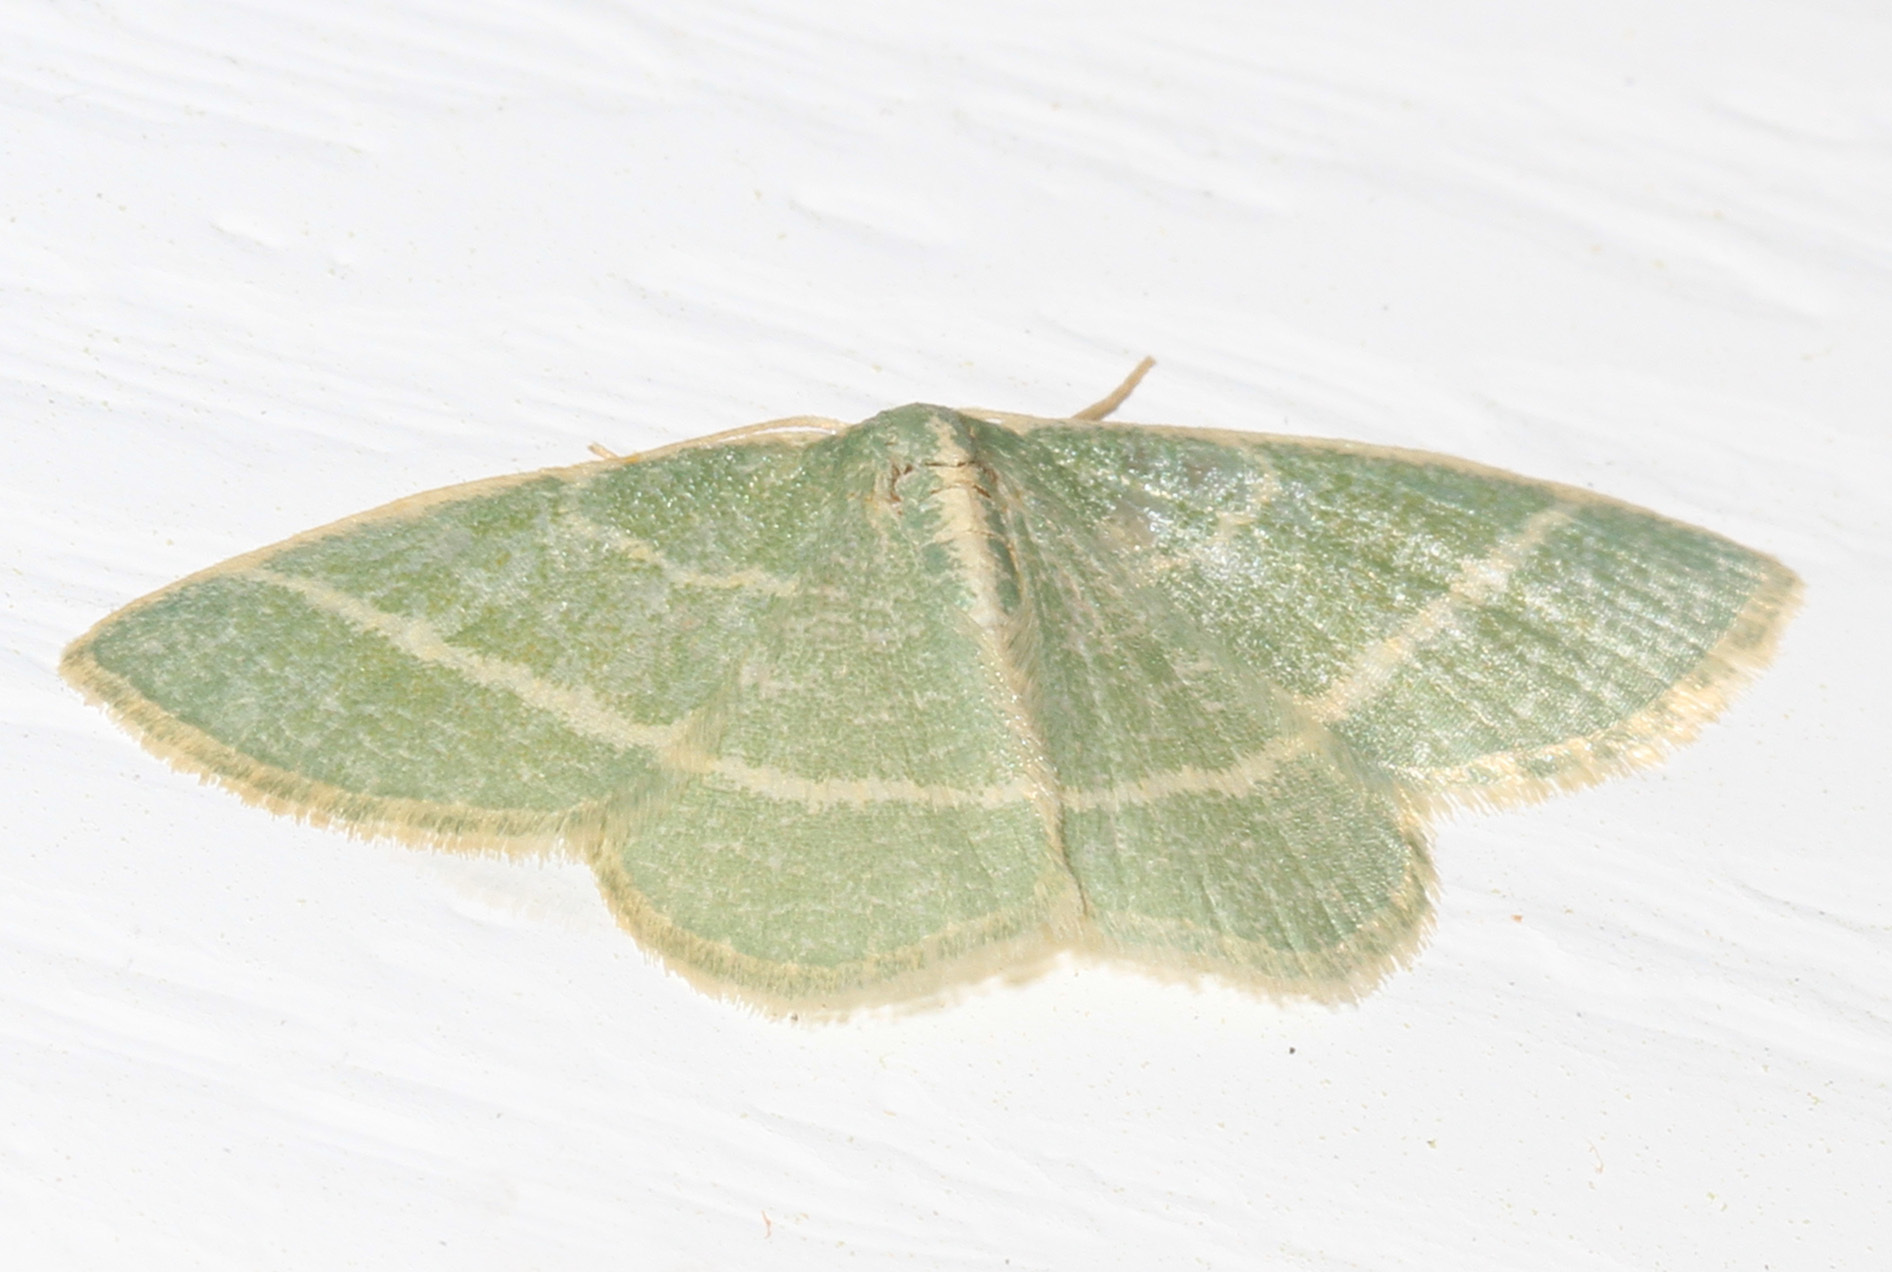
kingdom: Animalia
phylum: Arthropoda
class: Insecta
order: Lepidoptera
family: Geometridae
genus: Chlorochlamys
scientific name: Chlorochlamys chloroleucaria
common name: Blackberry looper
